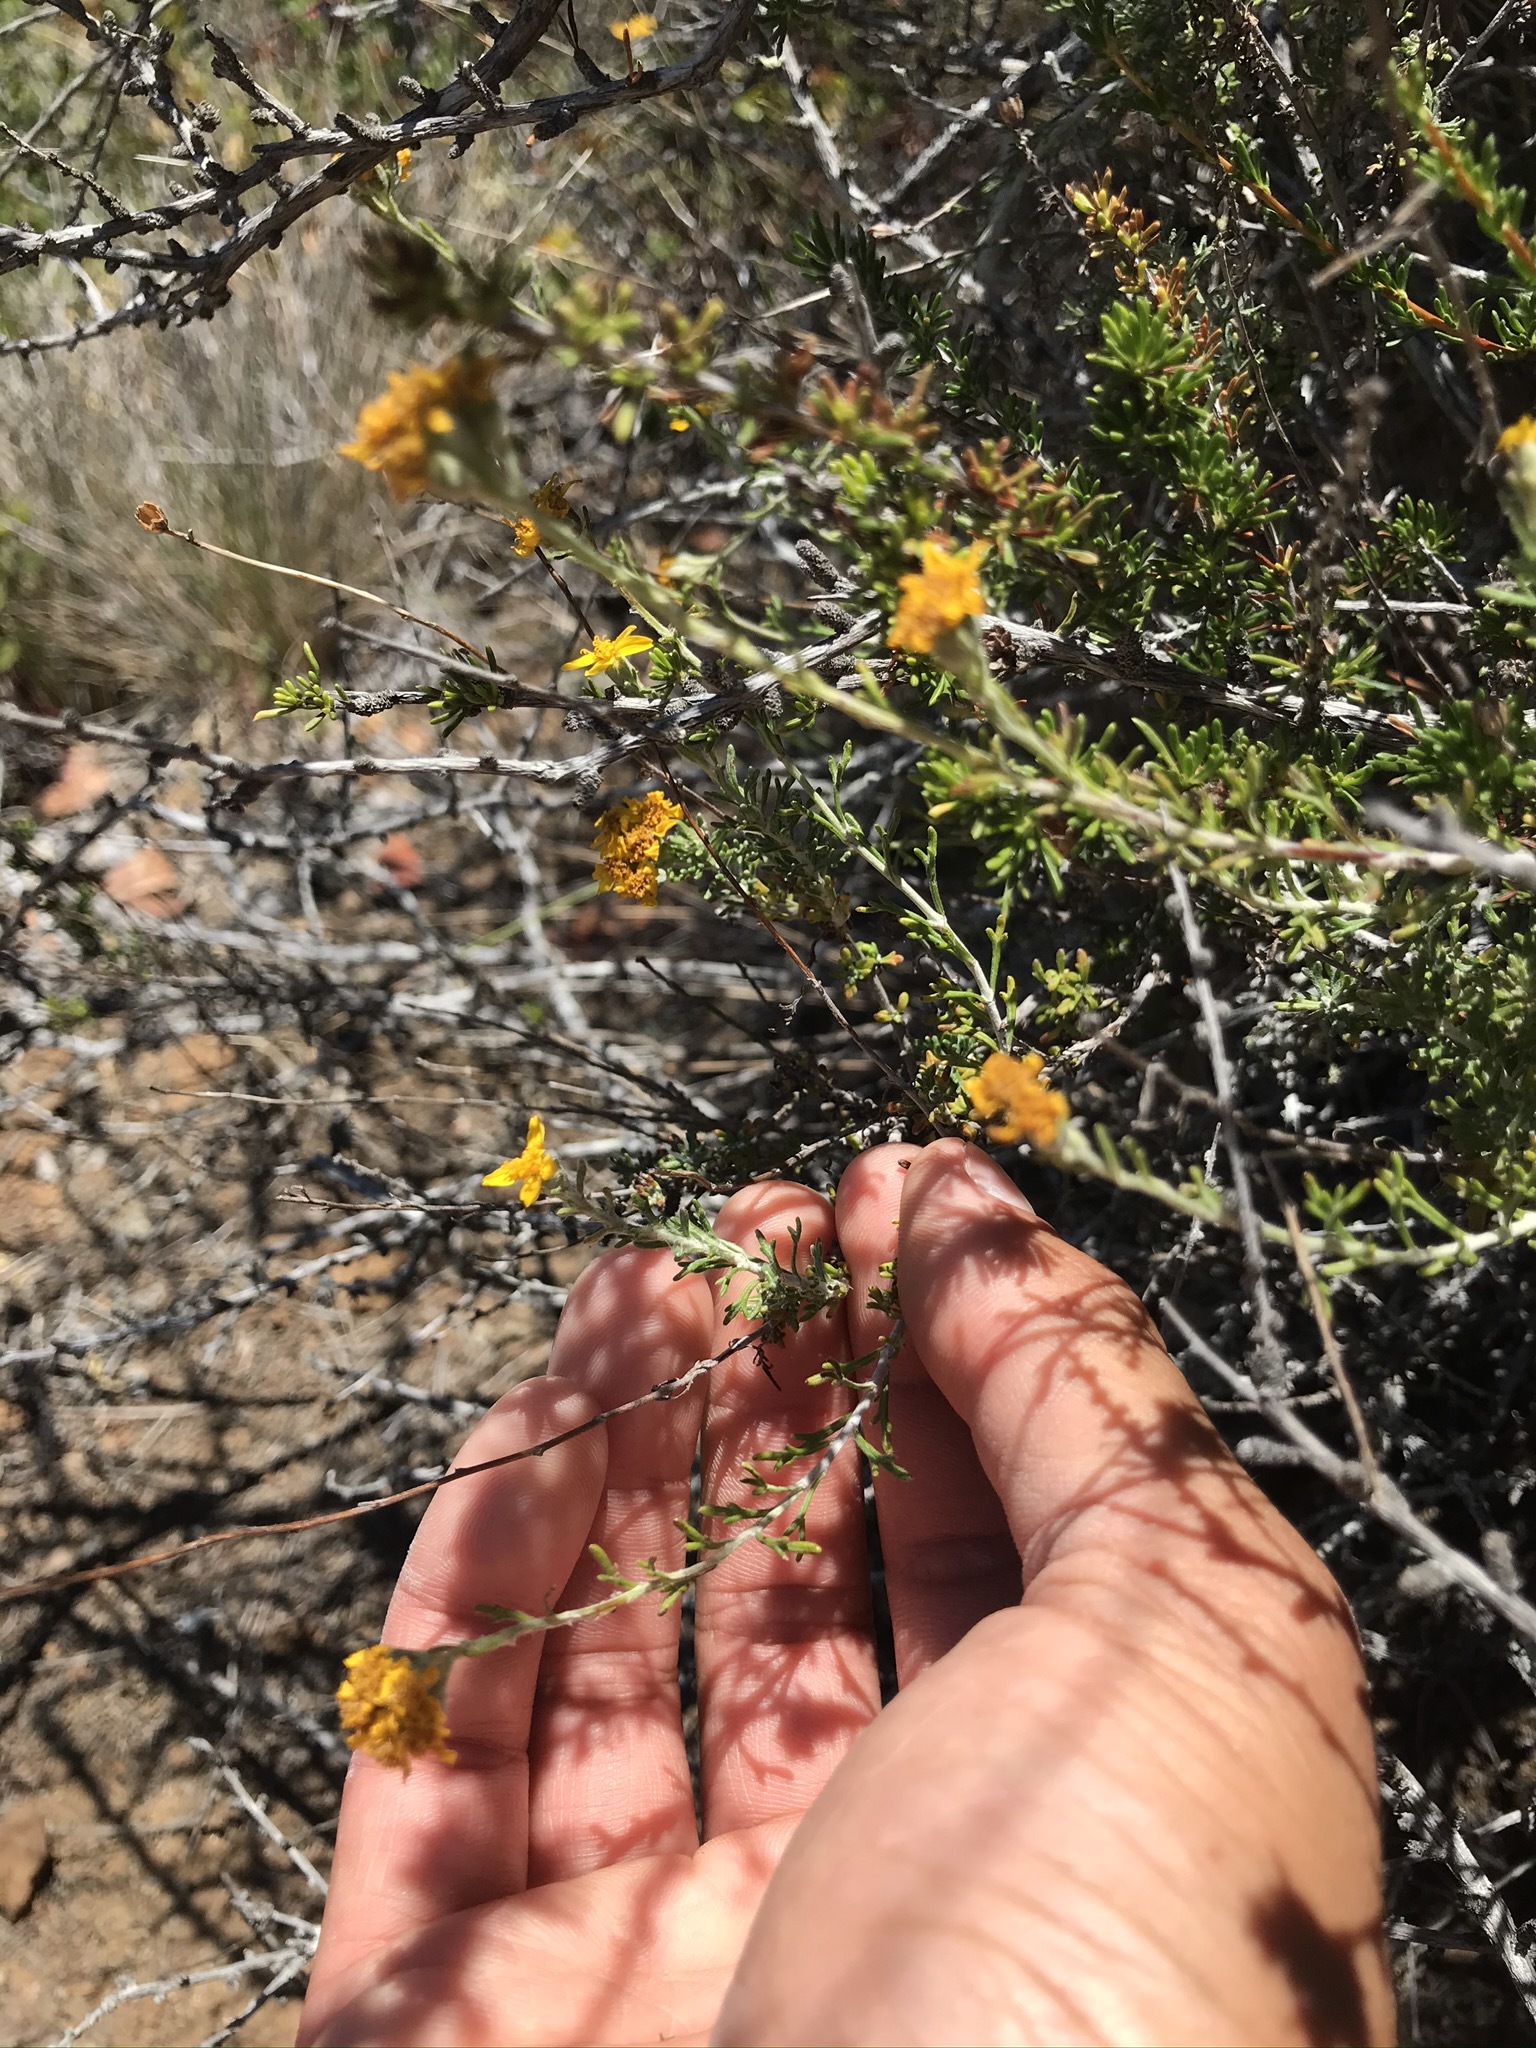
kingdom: Plantae
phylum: Tracheophyta
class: Magnoliopsida
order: Asterales
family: Asteraceae
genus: Eriophyllum
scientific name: Eriophyllum confertiflorum
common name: Golden-yarrow
